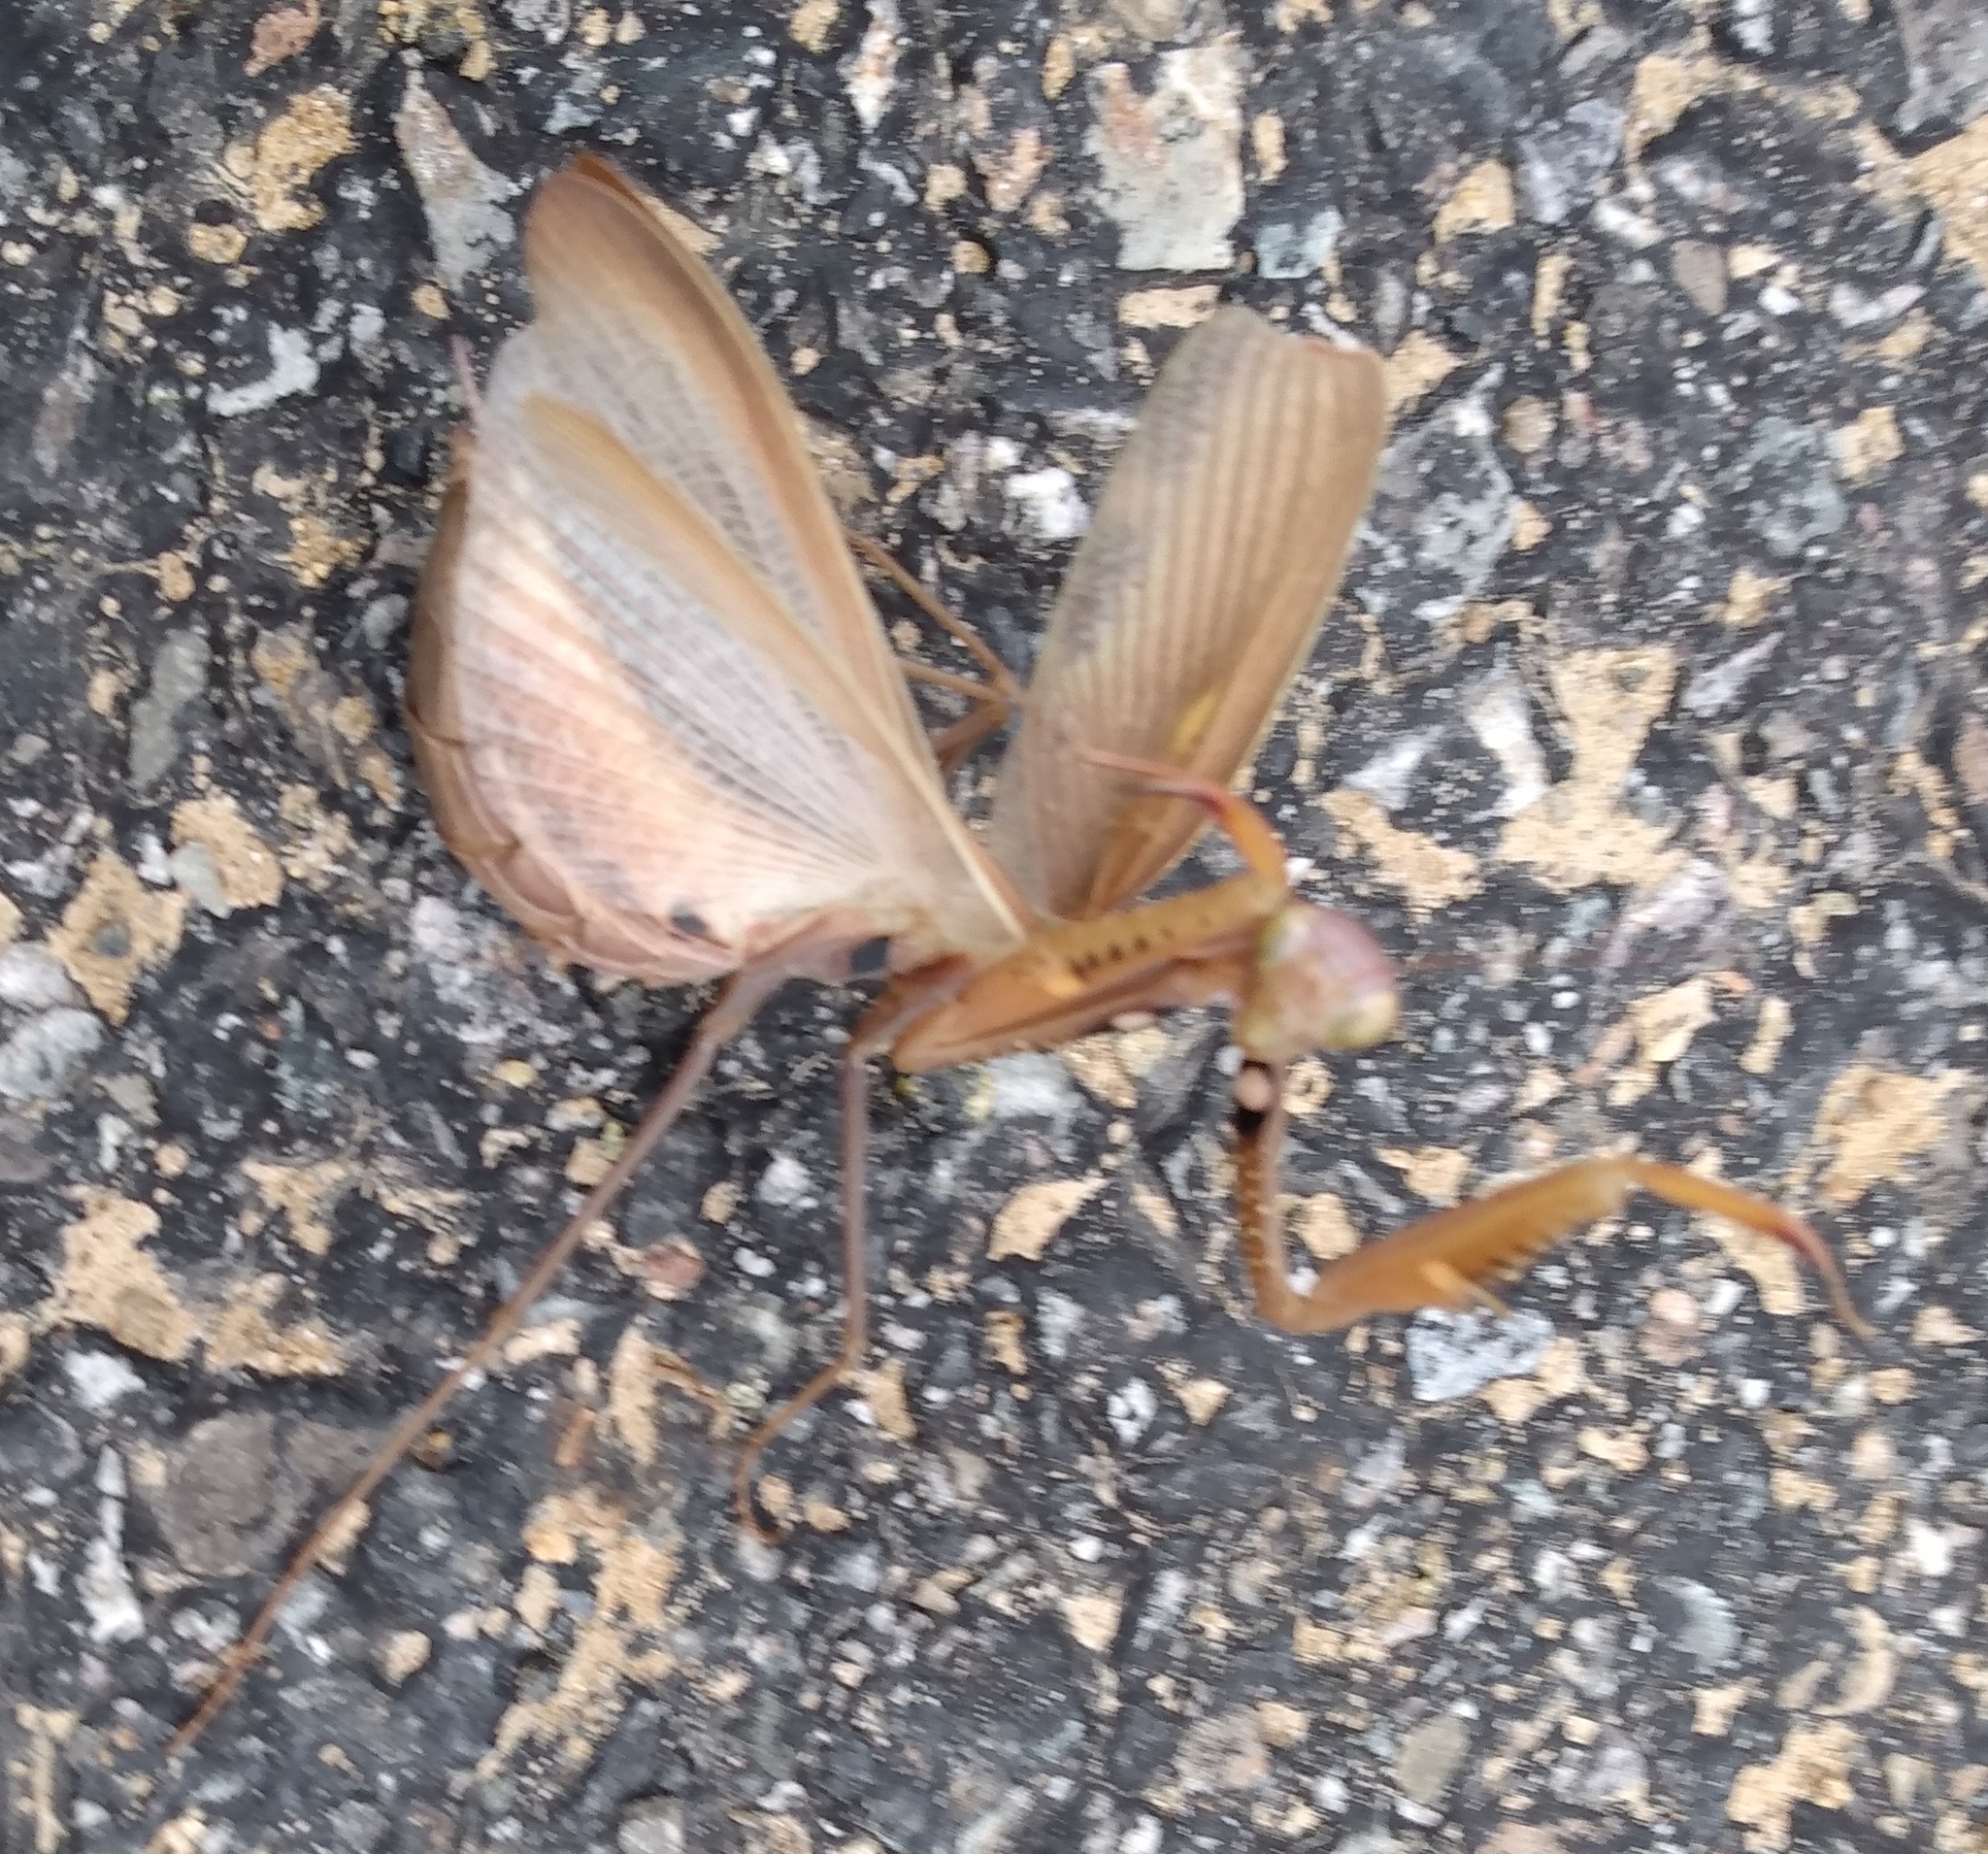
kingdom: Animalia
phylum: Arthropoda
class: Insecta
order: Mantodea
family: Mantidae
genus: Mantis
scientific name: Mantis religiosa
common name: Praying mantis
